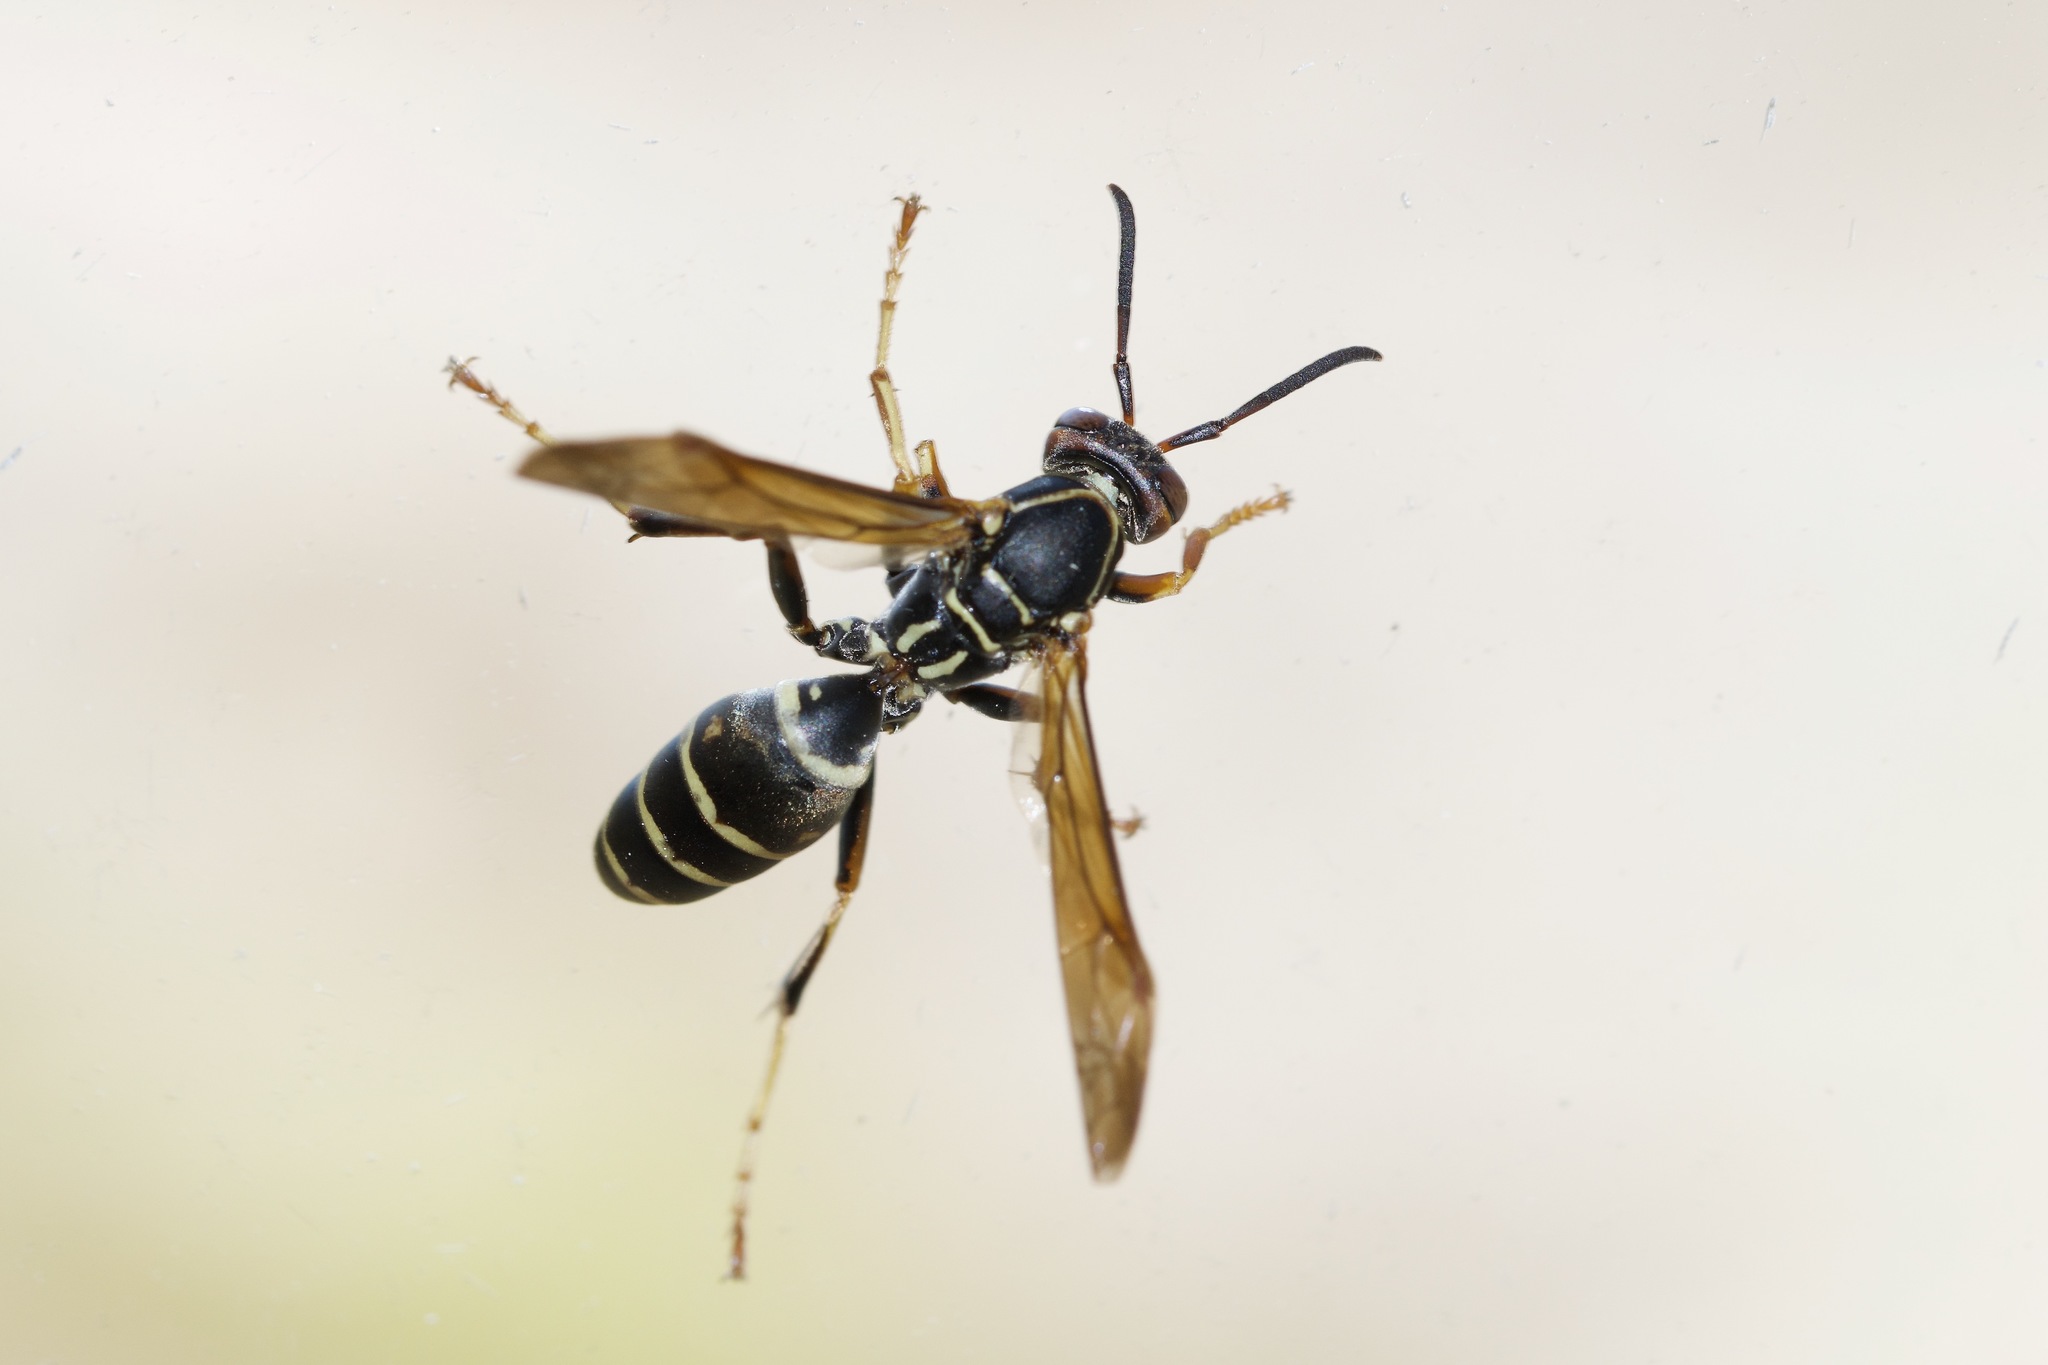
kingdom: Animalia
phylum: Arthropoda
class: Insecta
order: Hymenoptera
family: Eumenidae
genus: Polistes
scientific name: Polistes fuscatus
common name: Dark paper wasp
